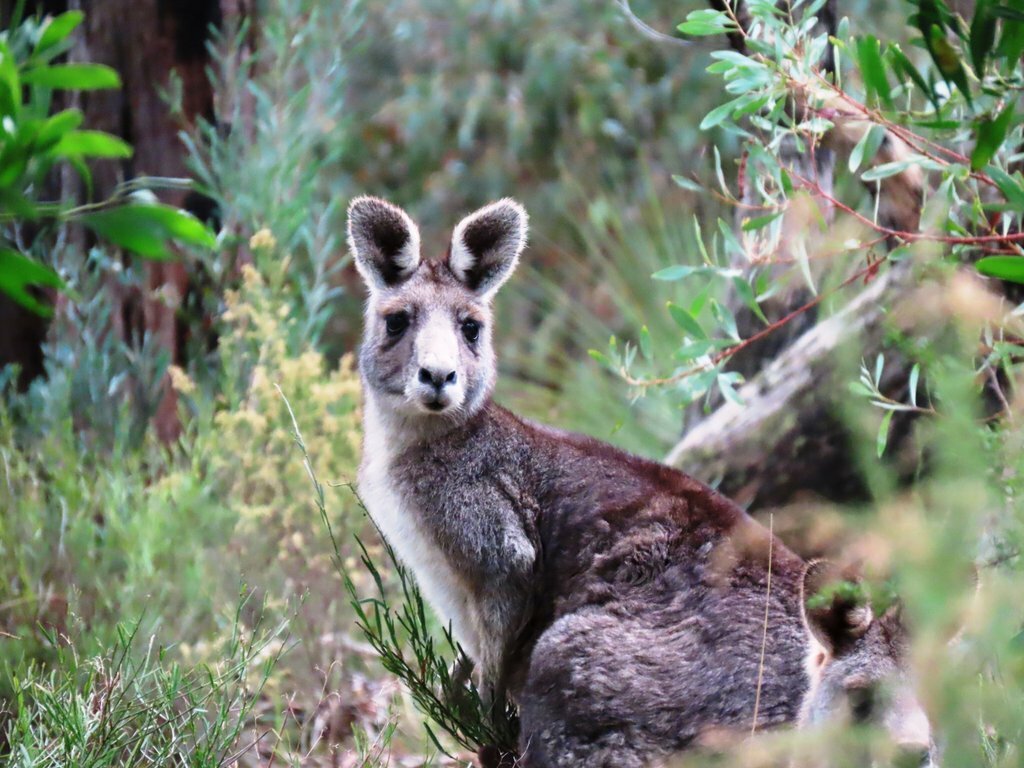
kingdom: Animalia
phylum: Chordata
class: Mammalia
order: Diprotodontia
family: Macropodidae
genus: Macropus
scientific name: Macropus giganteus
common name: Eastern grey kangaroo
